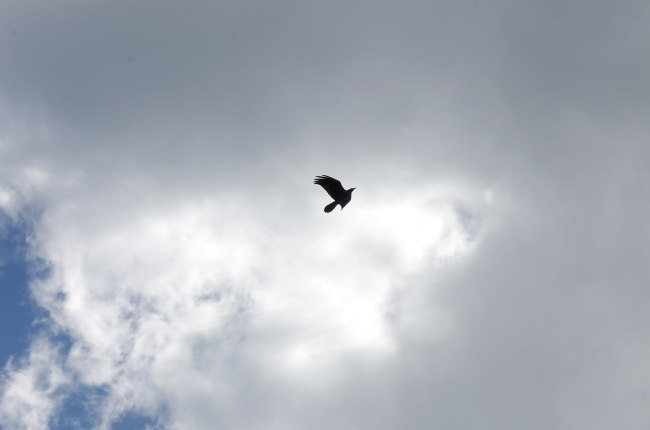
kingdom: Animalia
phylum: Chordata
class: Aves
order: Passeriformes
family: Corvidae
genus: Corvus
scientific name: Corvus corax
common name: Common raven
